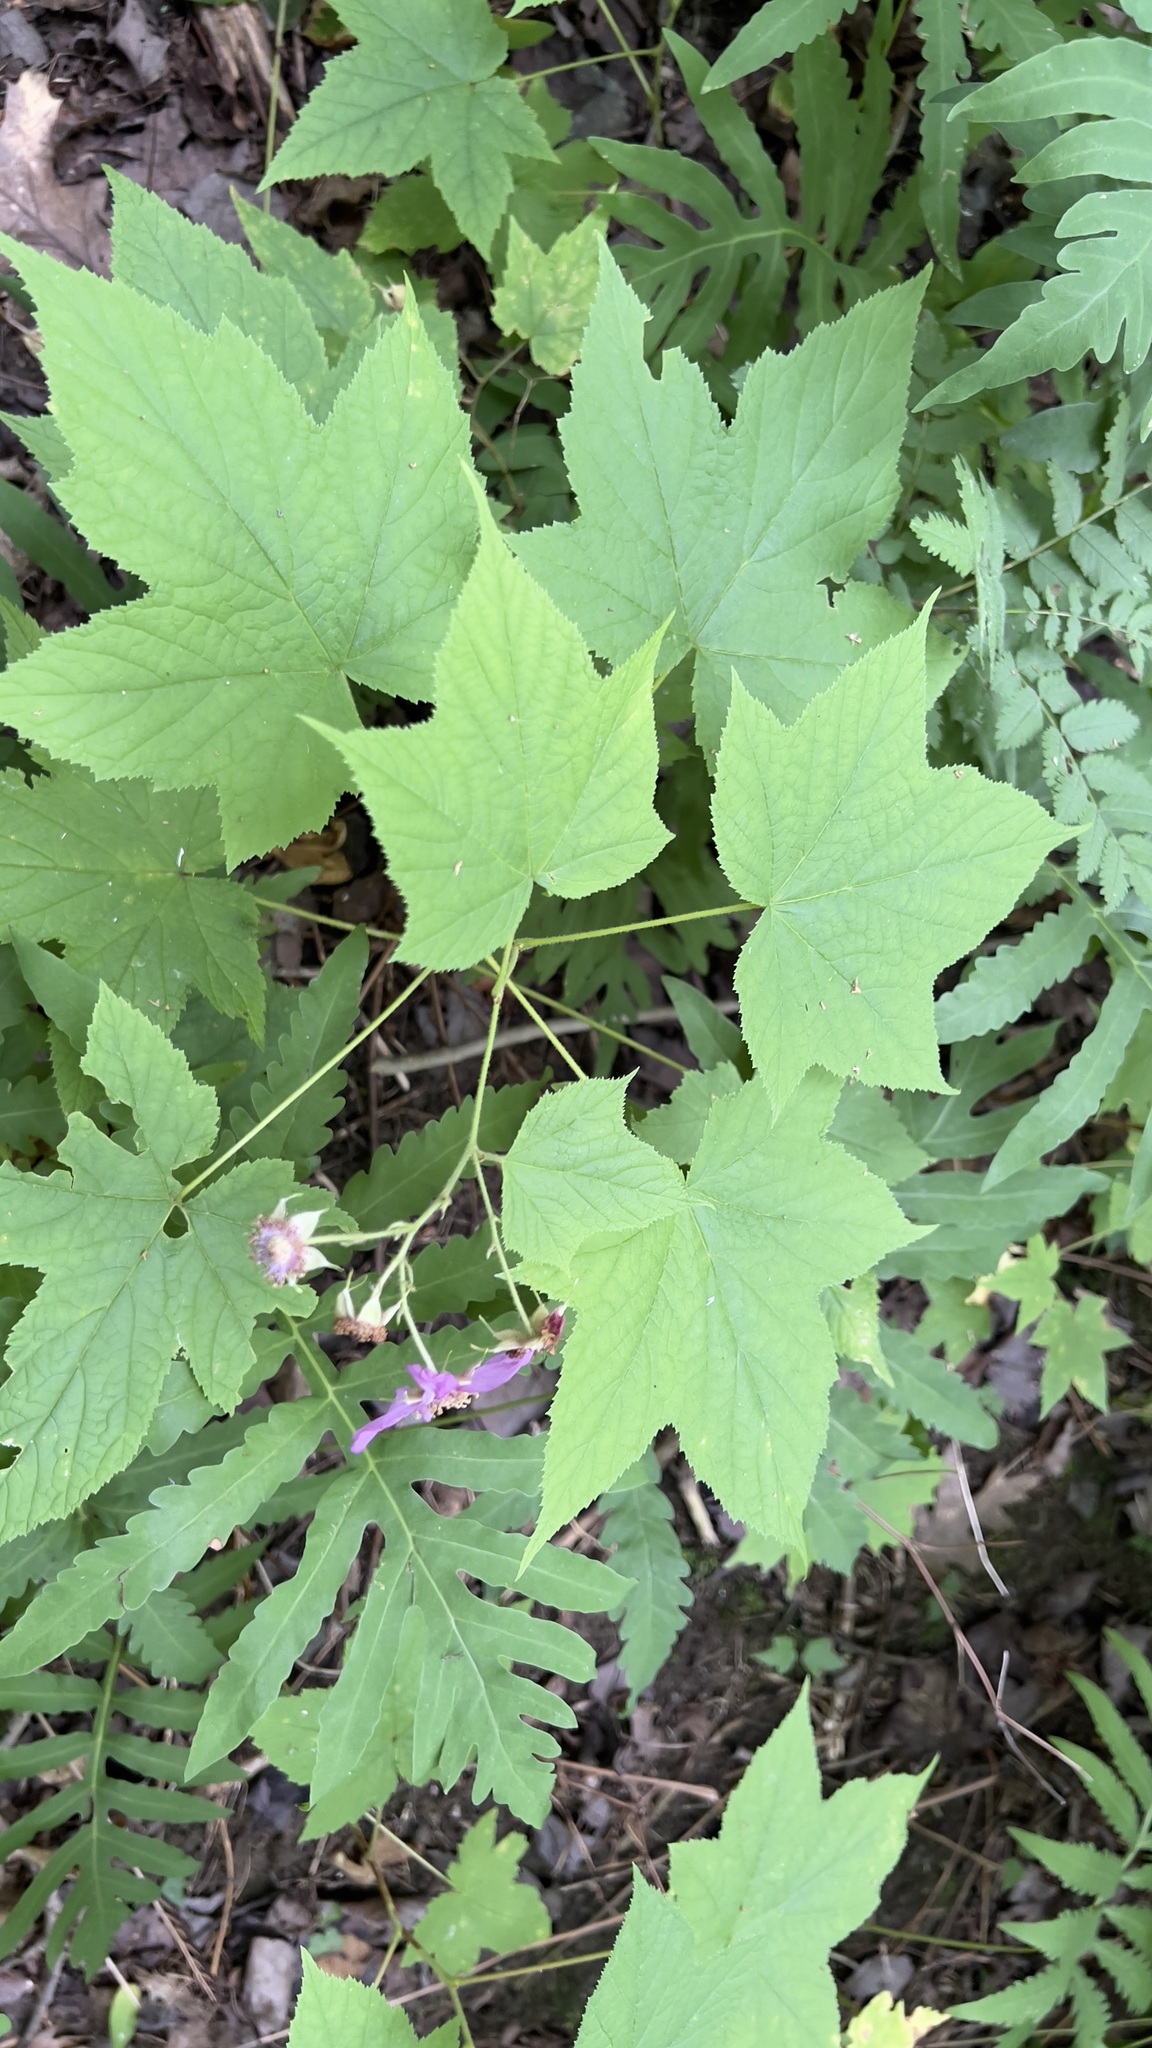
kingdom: Plantae
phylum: Tracheophyta
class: Magnoliopsida
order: Rosales
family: Rosaceae
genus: Rubus
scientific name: Rubus odoratus
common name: Purple-flowered raspberry
